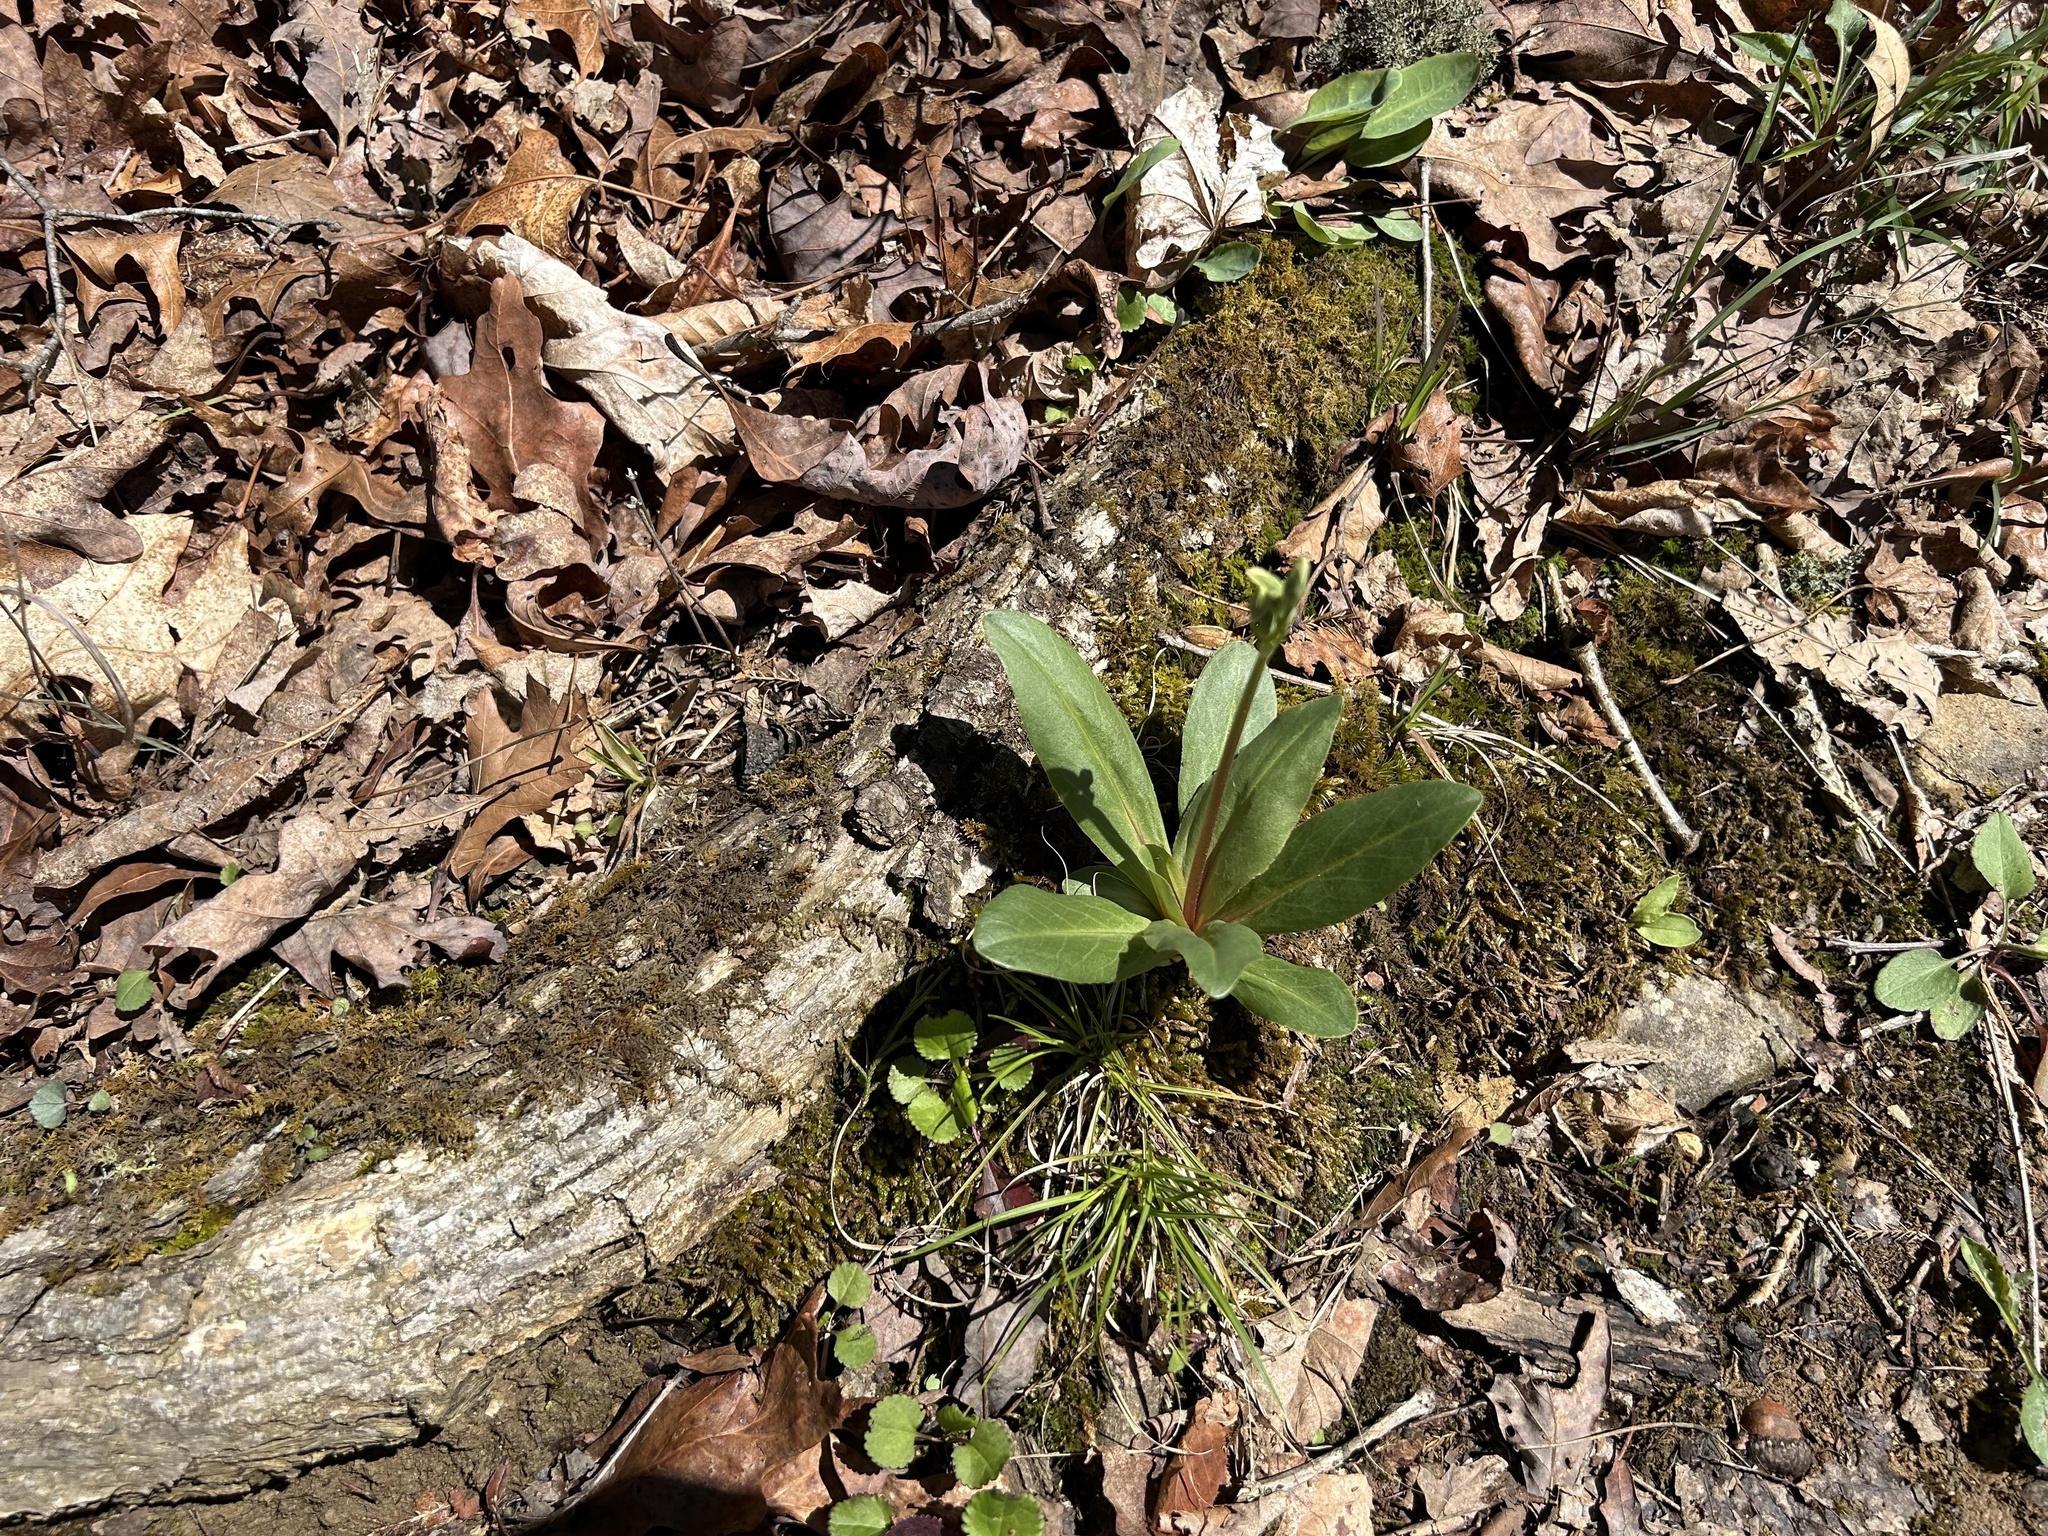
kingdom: Plantae
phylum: Tracheophyta
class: Magnoliopsida
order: Ericales
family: Primulaceae
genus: Dodecatheon
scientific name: Dodecatheon meadia
